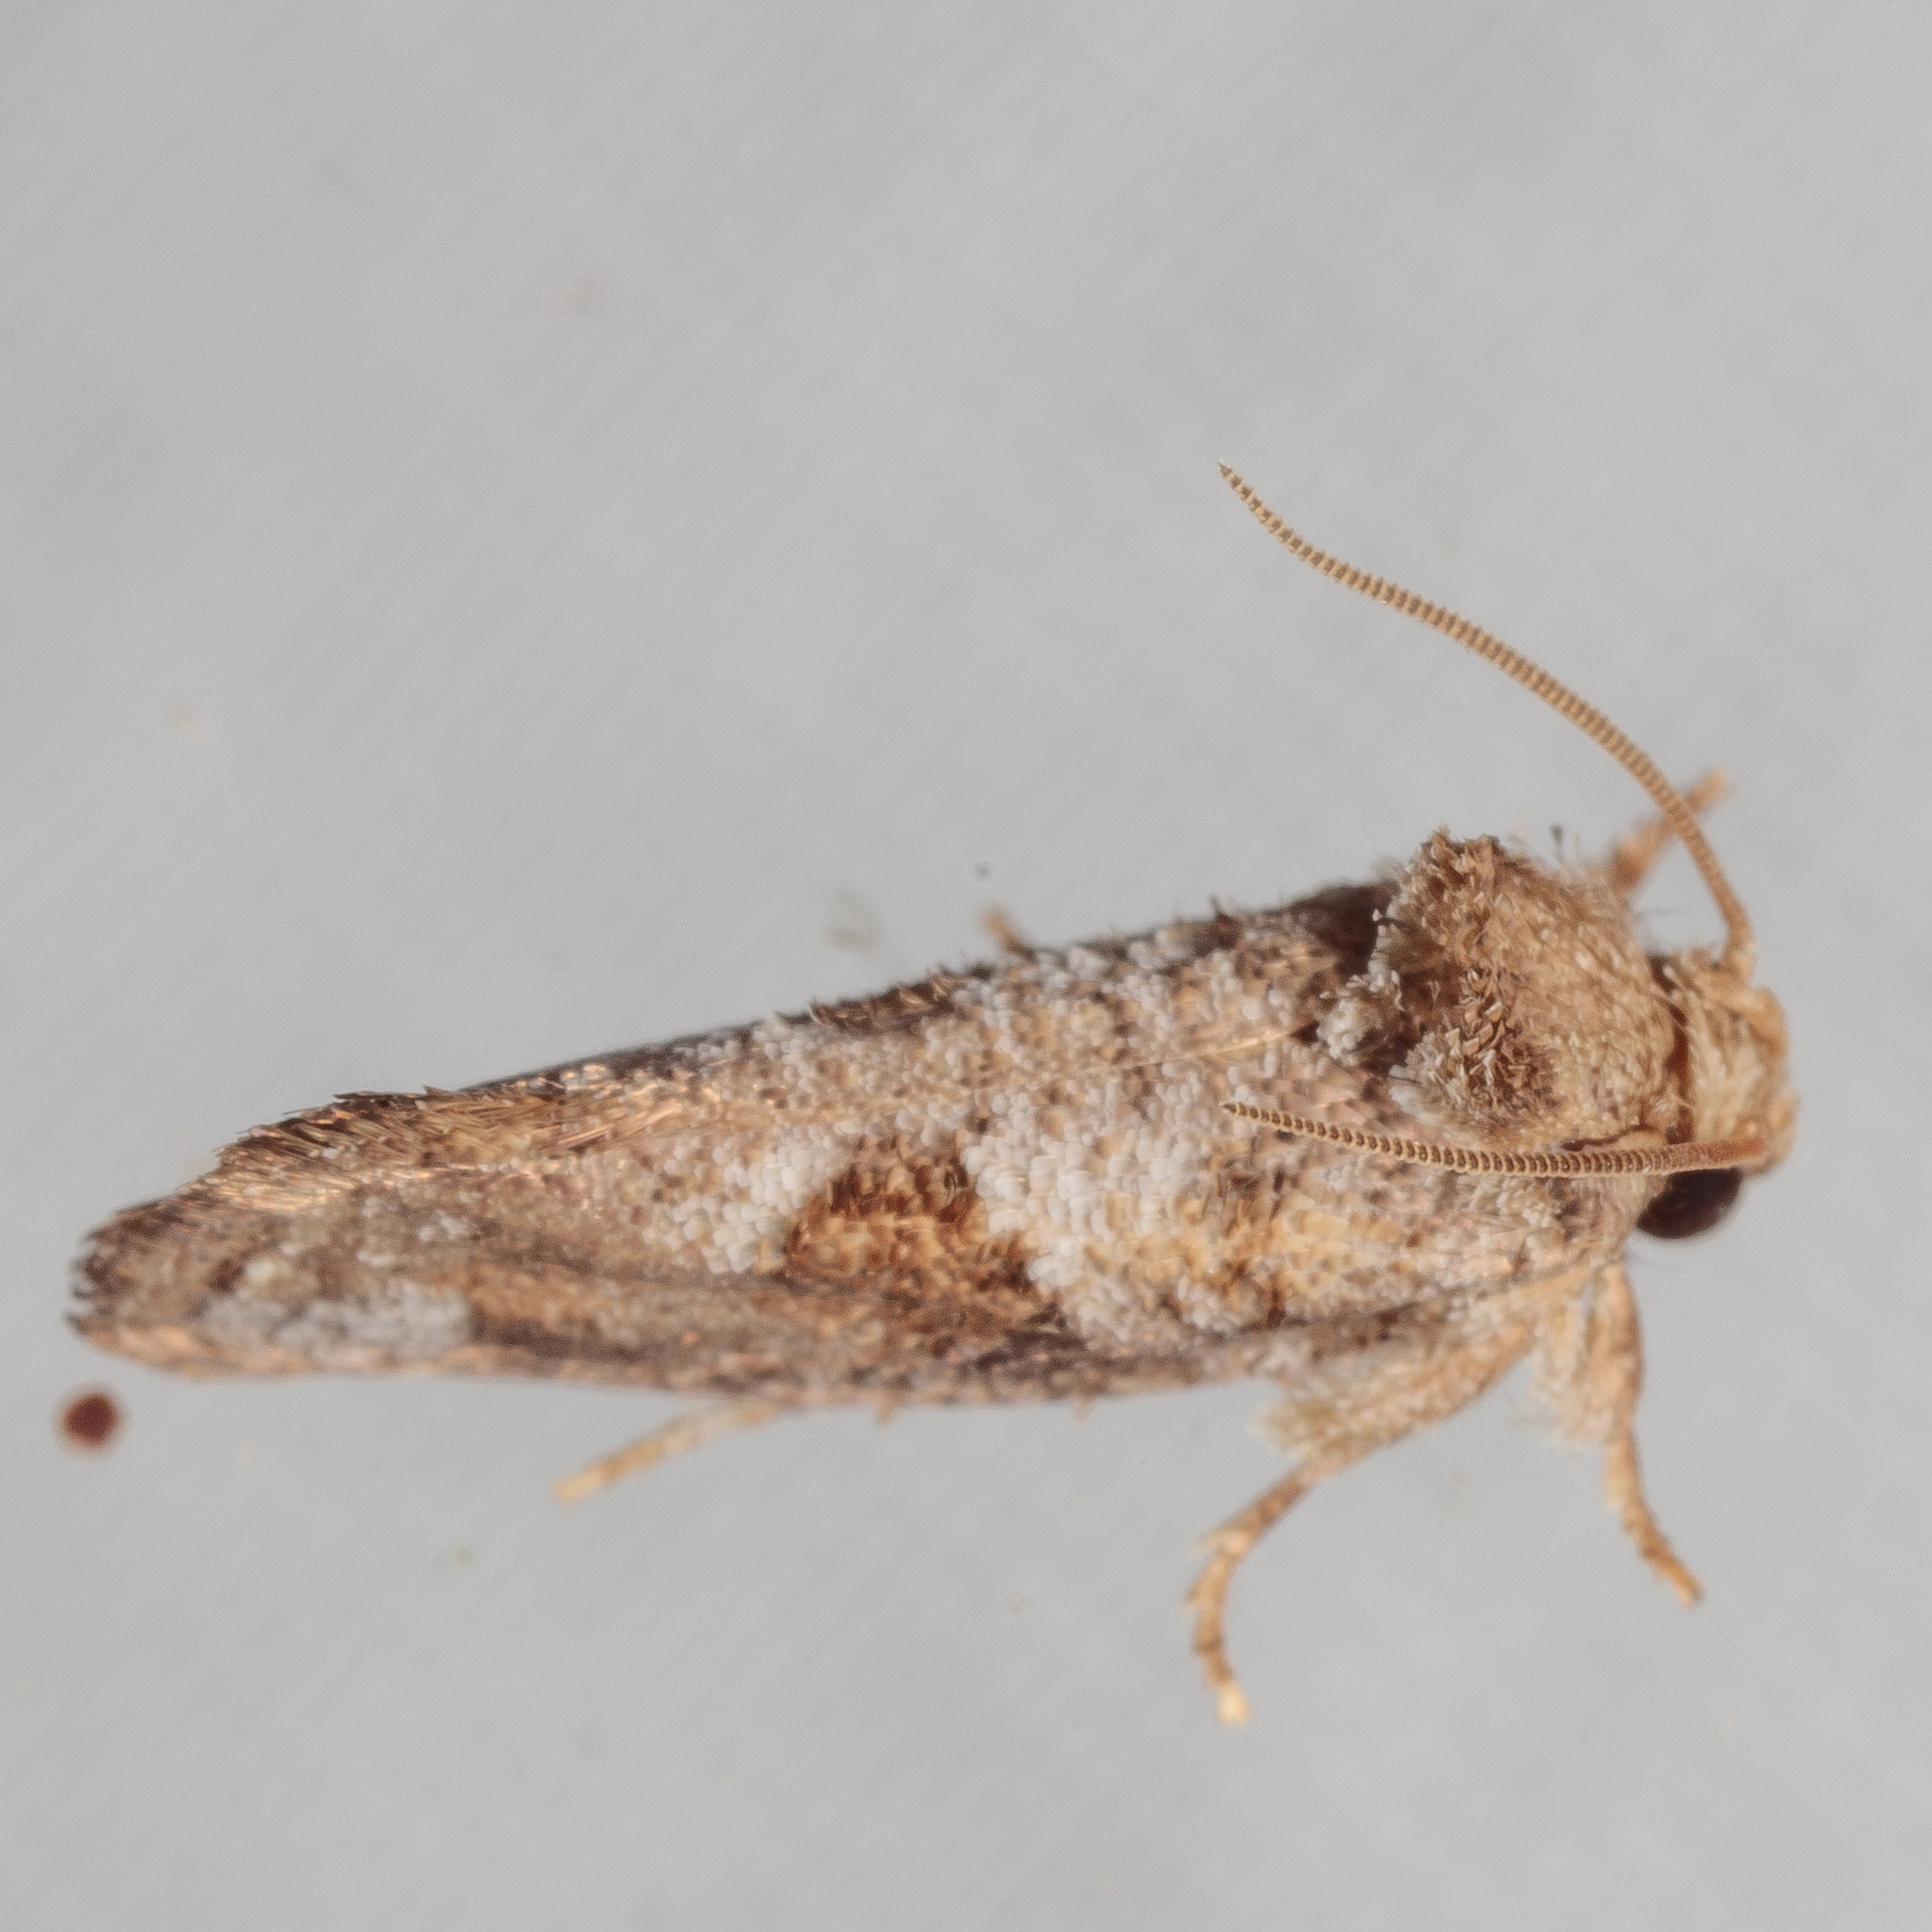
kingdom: Animalia
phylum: Arthropoda
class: Insecta
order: Lepidoptera
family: Tineidae
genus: Acrolophus
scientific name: Acrolophus piger
